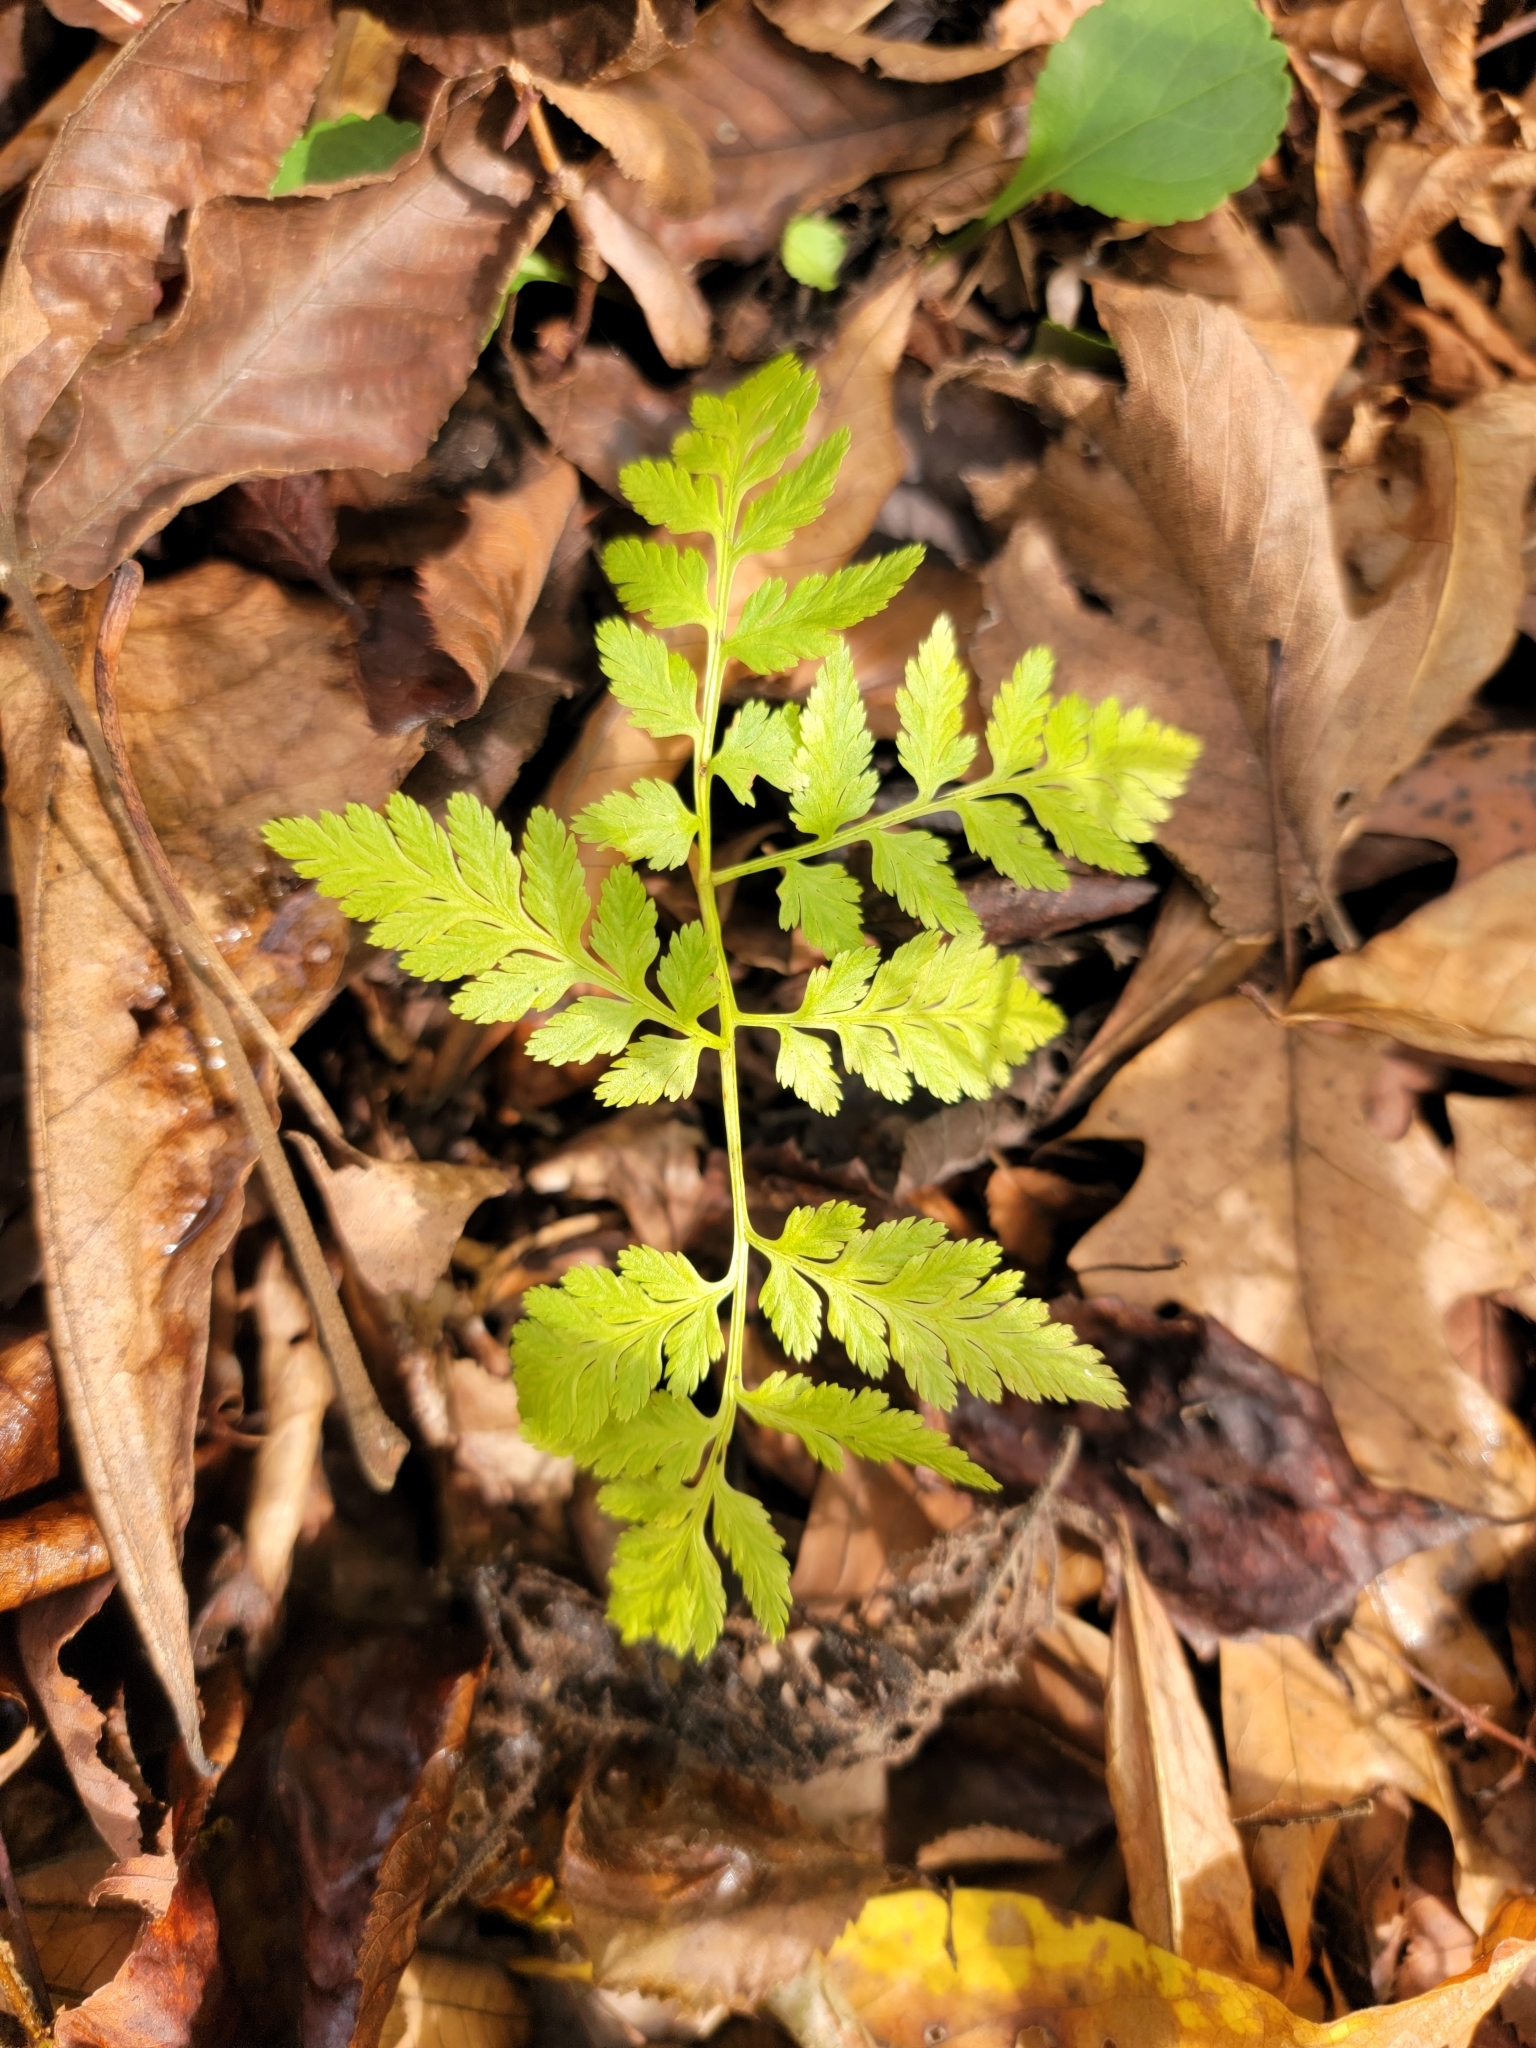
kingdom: Plantae
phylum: Tracheophyta
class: Polypodiopsida
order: Ophioglossales
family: Ophioglossaceae
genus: Botrypus
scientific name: Botrypus virginianus
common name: Common grapefern
